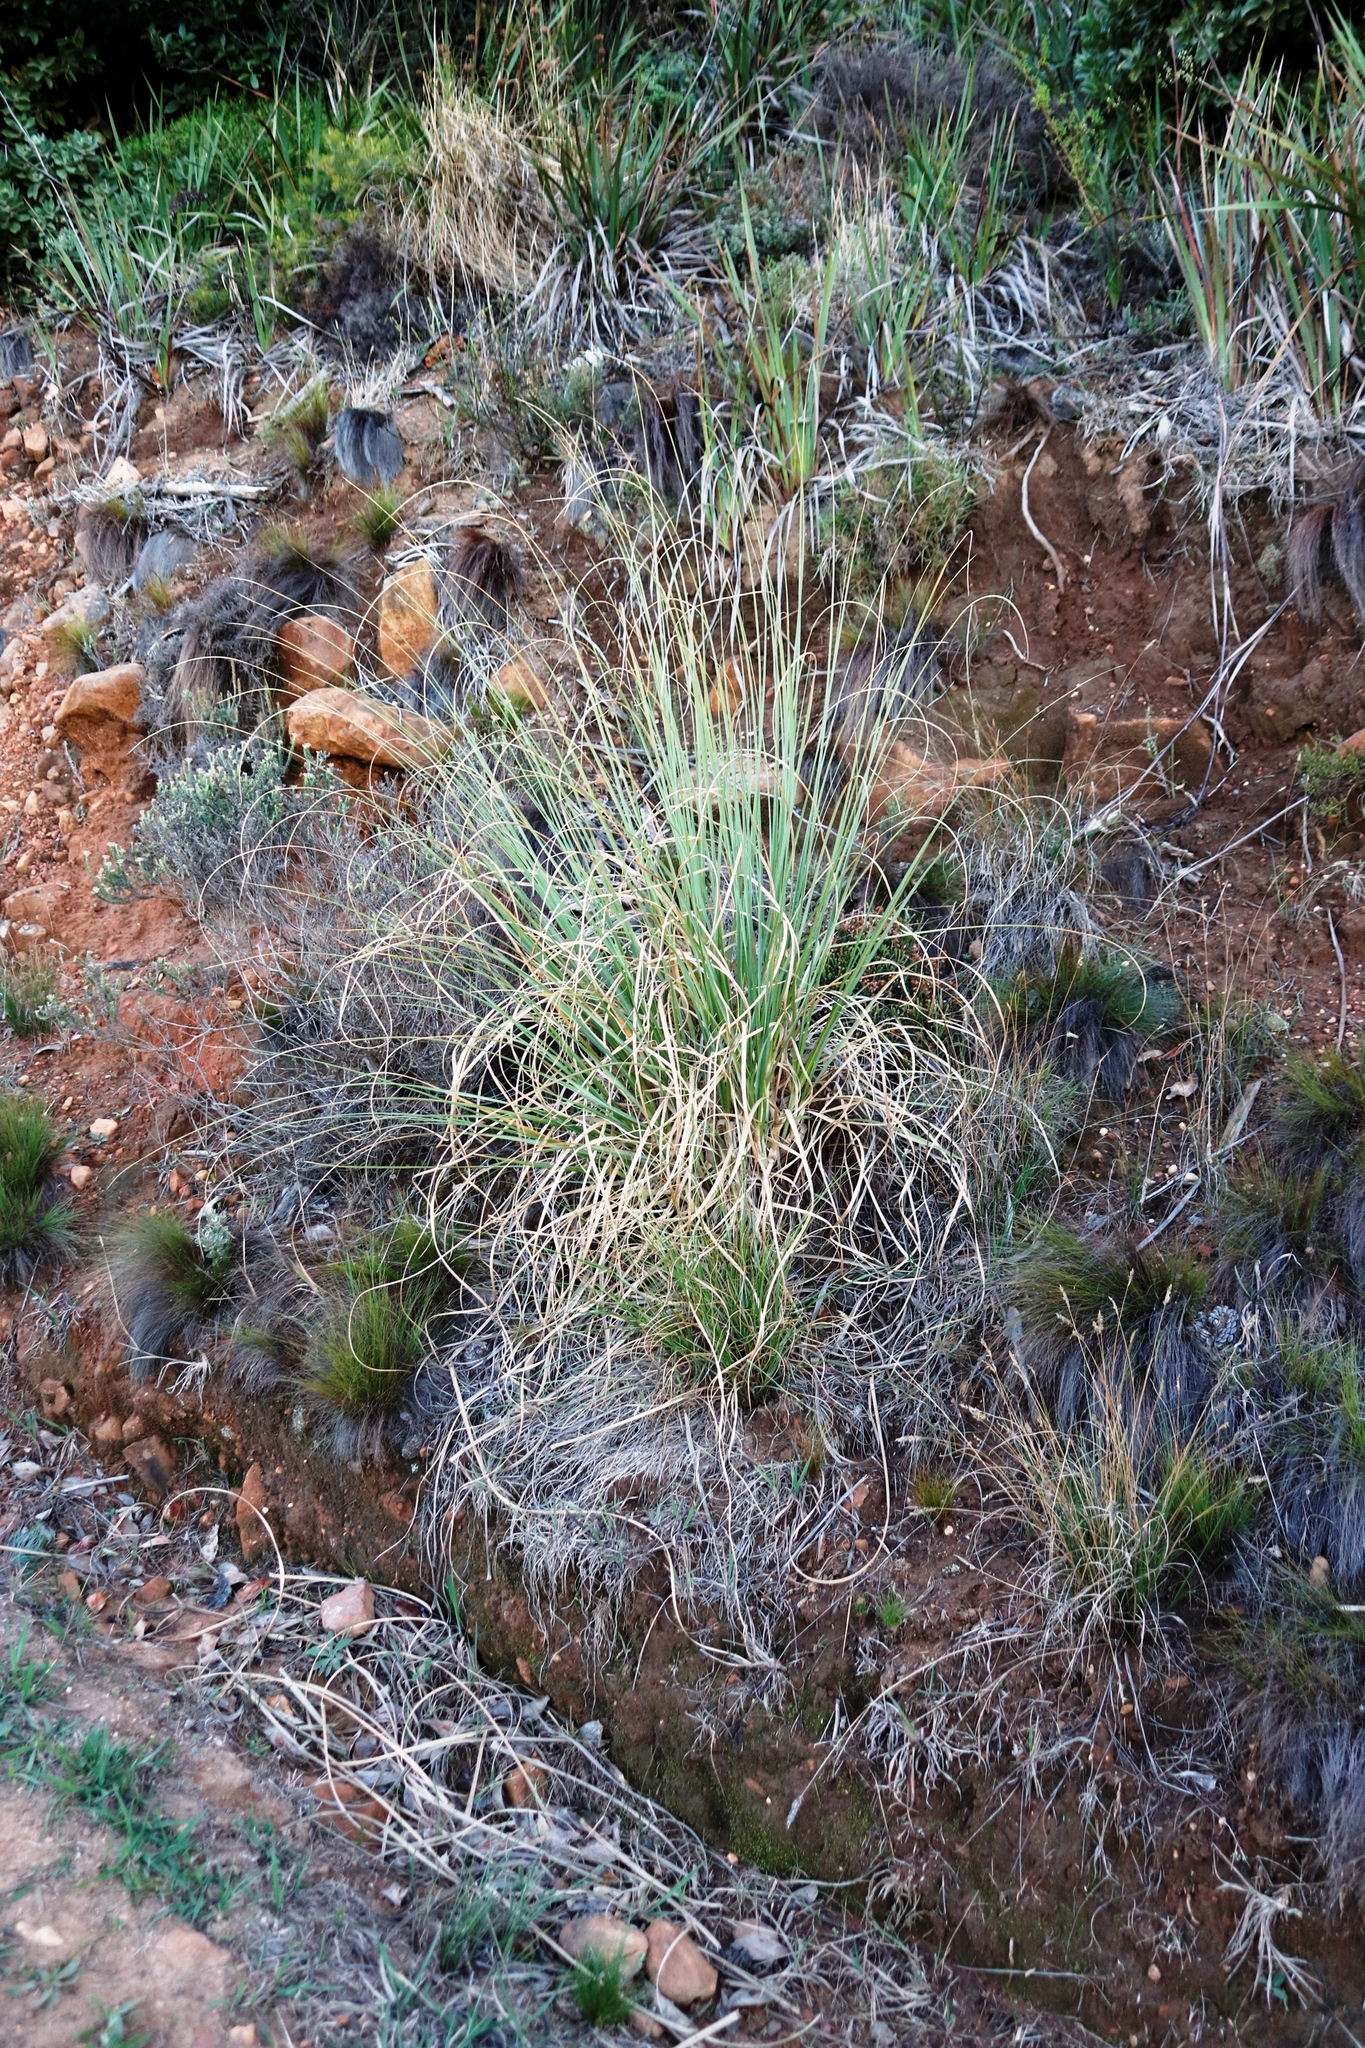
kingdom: Plantae
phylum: Tracheophyta
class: Liliopsida
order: Poales
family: Poaceae
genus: Cortaderia
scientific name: Cortaderia selloana
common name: Uruguayan pampas grass
